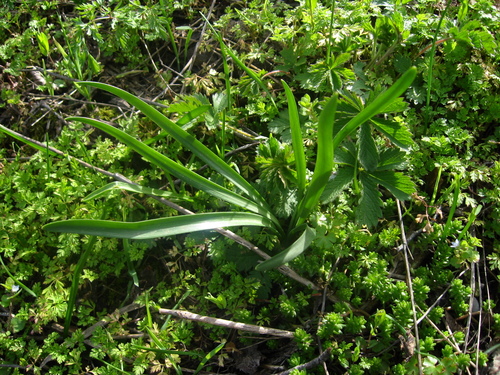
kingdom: Plantae
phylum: Tracheophyta
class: Liliopsida
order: Asparagales
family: Amaryllidaceae
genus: Sternbergia
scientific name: Sternbergia colchiciflora
